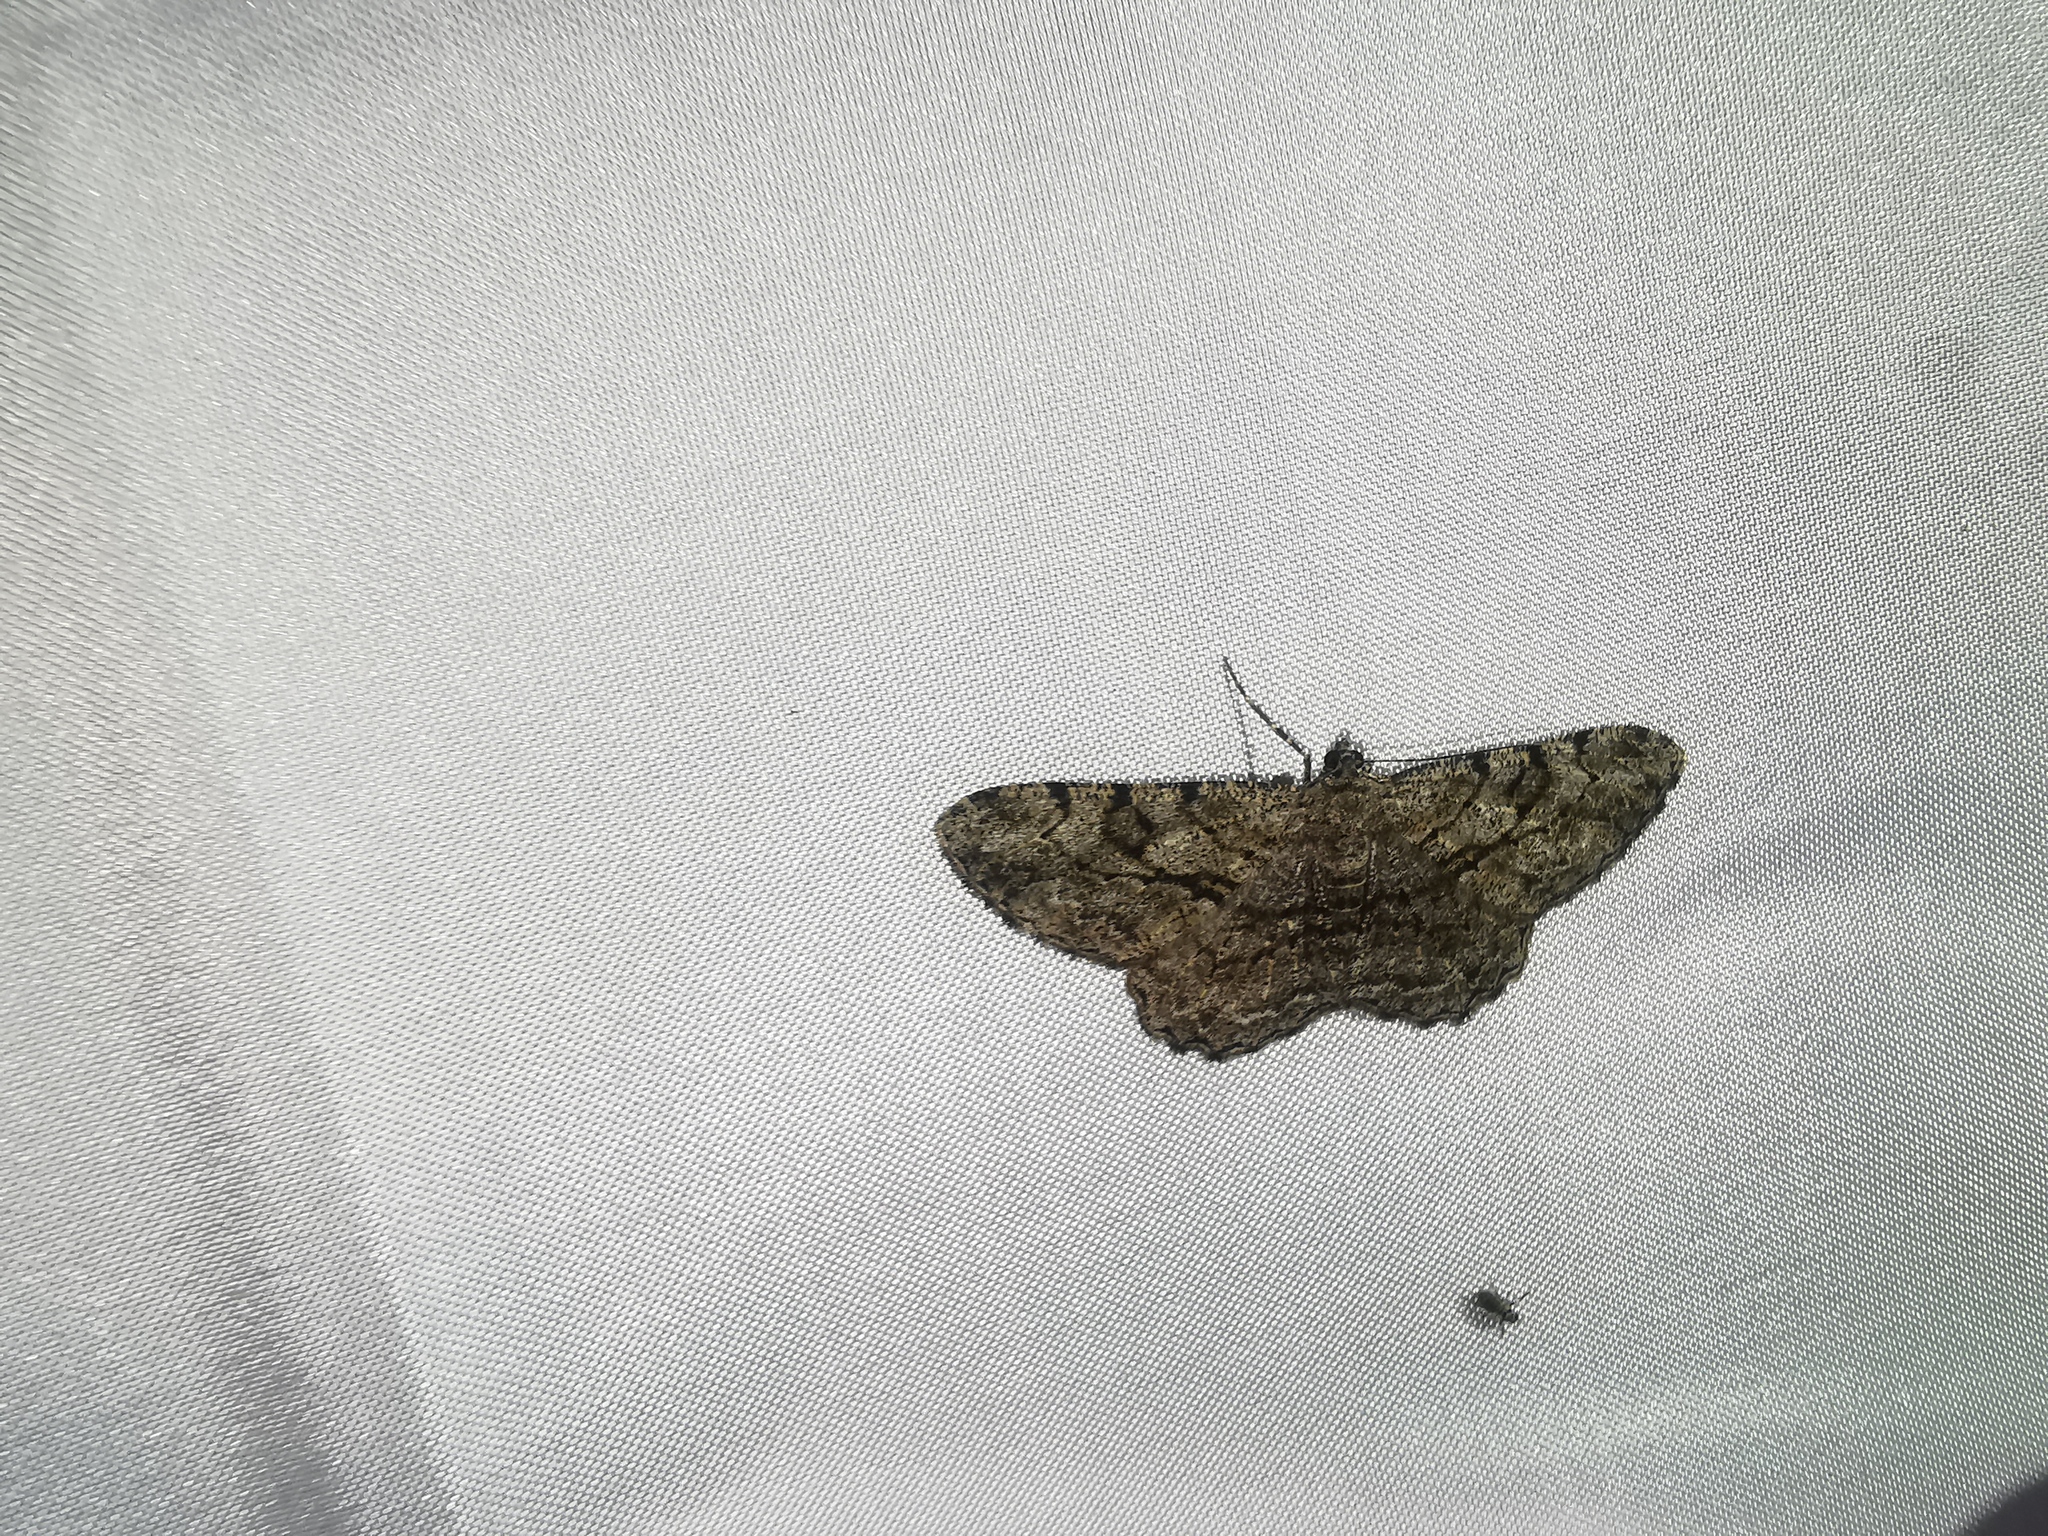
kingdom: Animalia
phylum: Arthropoda
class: Insecta
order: Lepidoptera
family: Geometridae
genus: Peribatodes
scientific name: Peribatodes rhomboidaria
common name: Willow beauty
